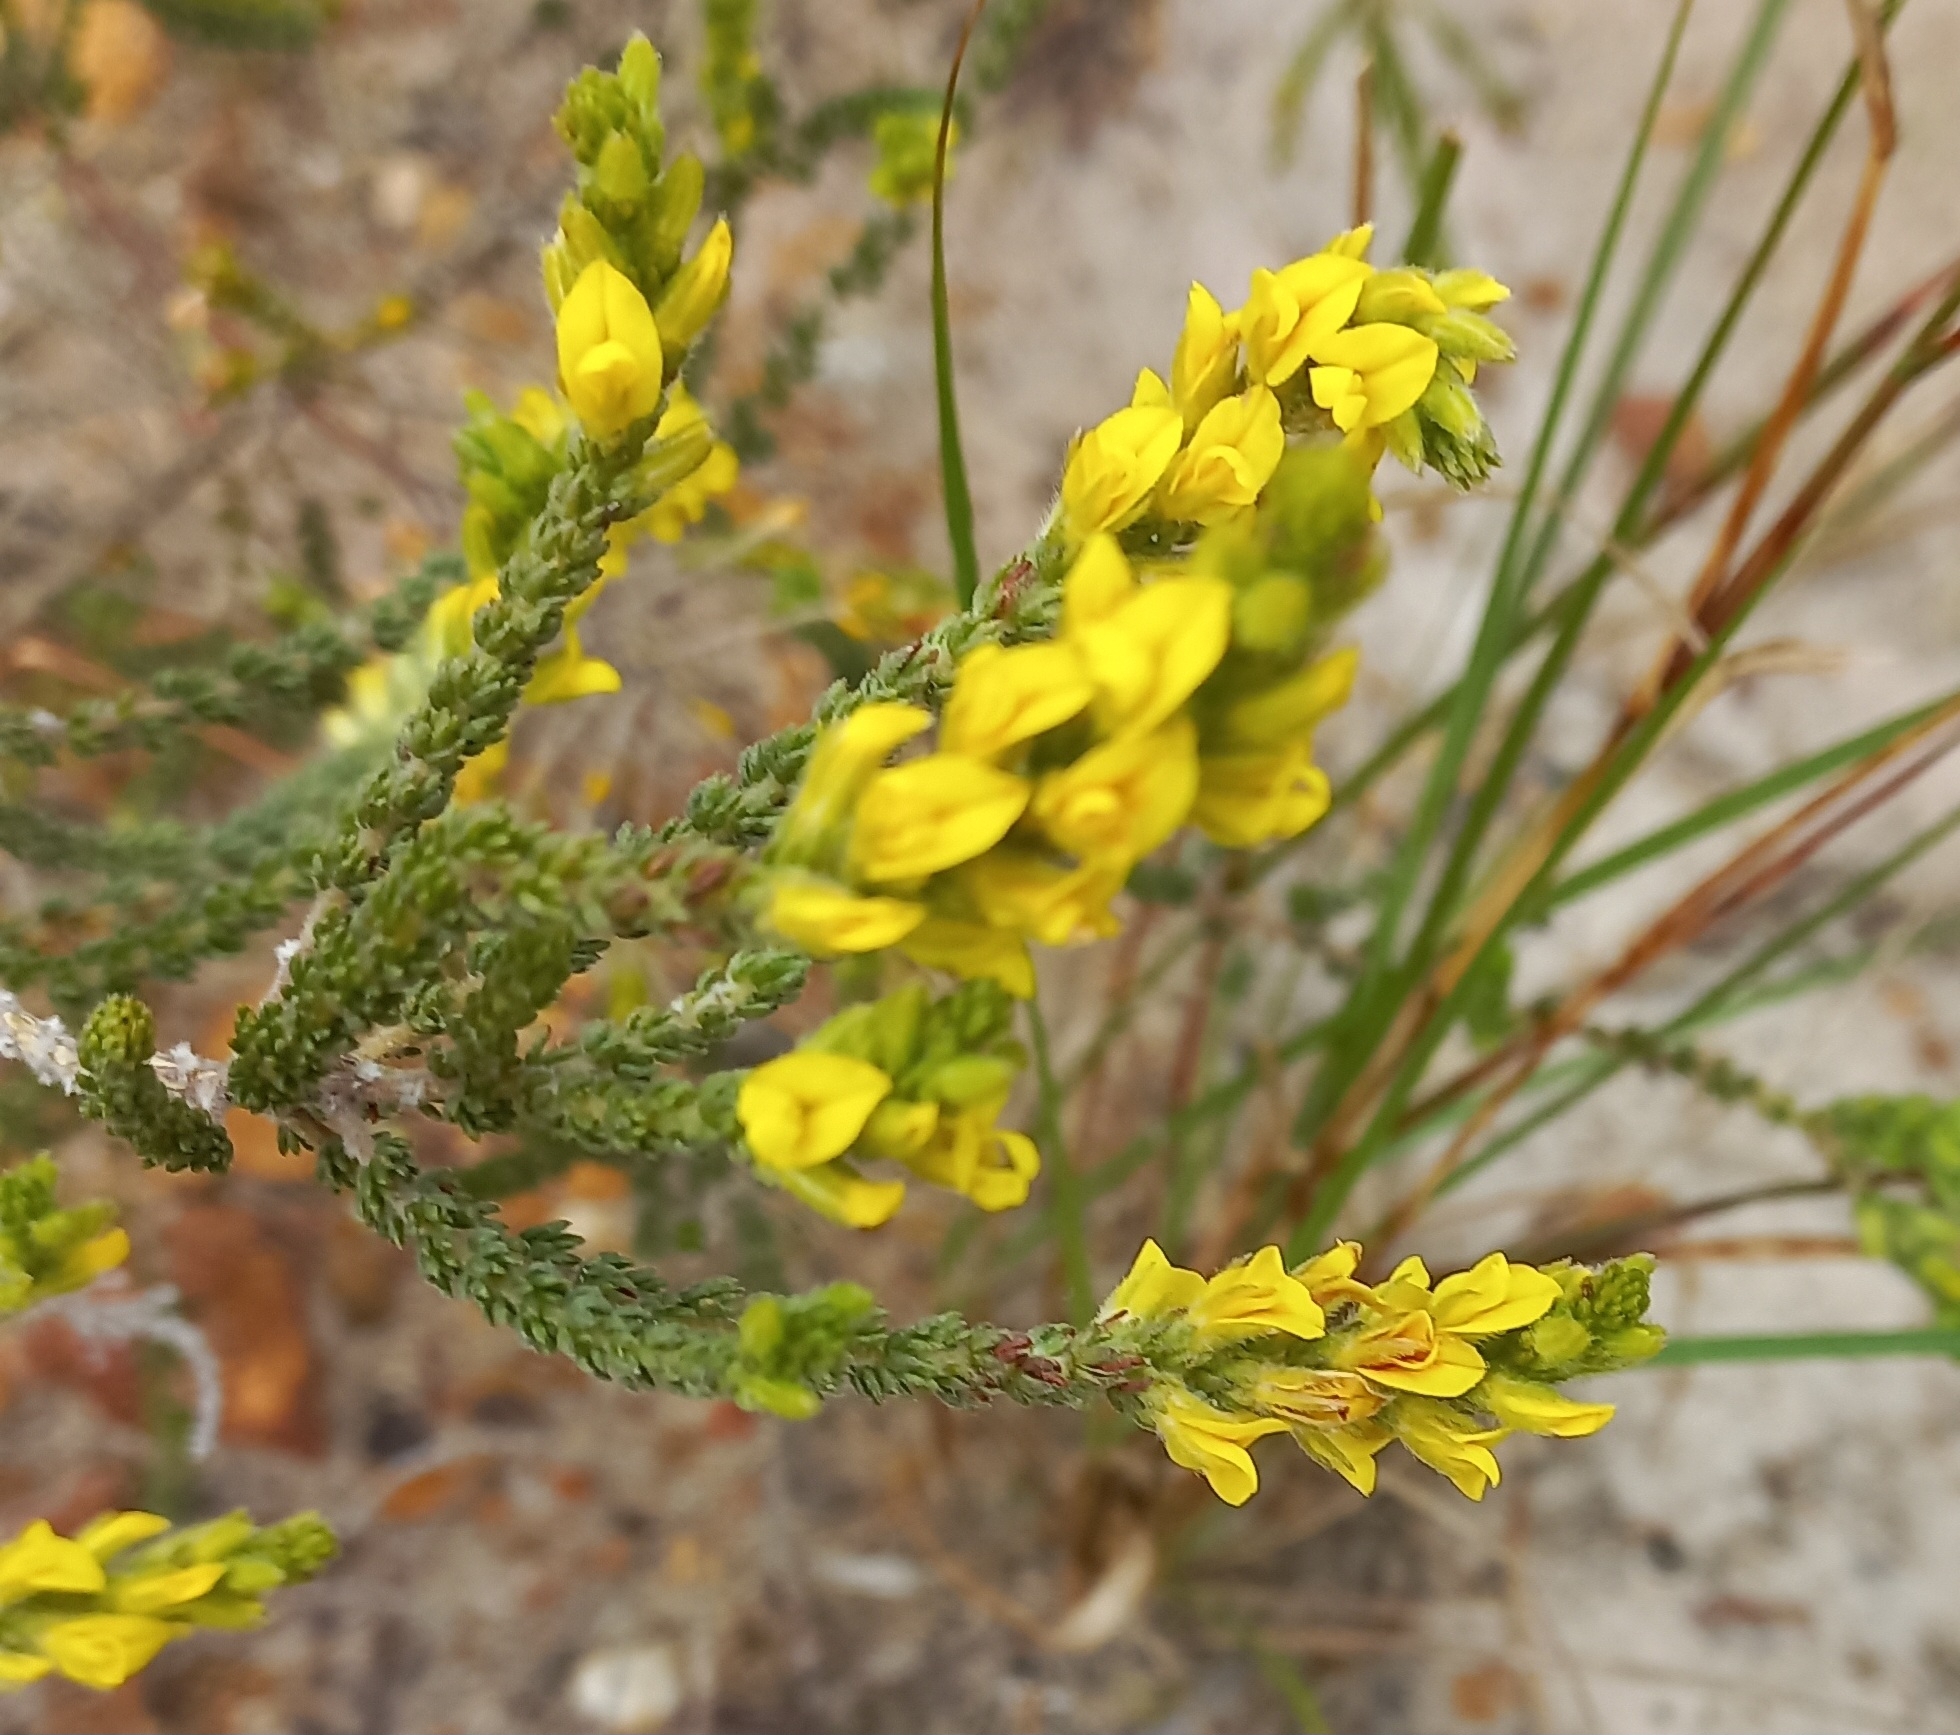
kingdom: Plantae
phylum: Tracheophyta
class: Magnoliopsida
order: Fabales
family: Fabaceae
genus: Aspalathus
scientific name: Aspalathus ericifolia
